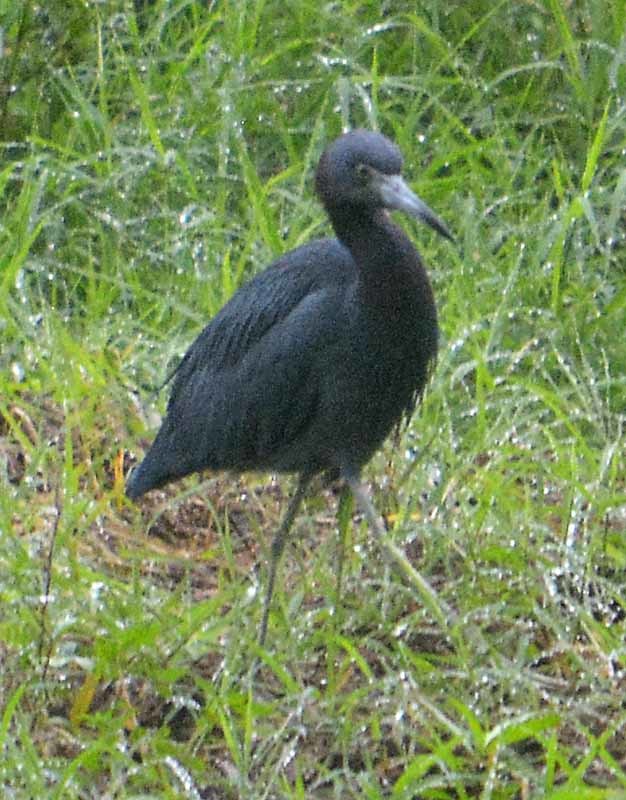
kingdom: Animalia
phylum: Chordata
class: Aves
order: Pelecaniformes
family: Ardeidae
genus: Egretta
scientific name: Egretta caerulea
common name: Little blue heron
